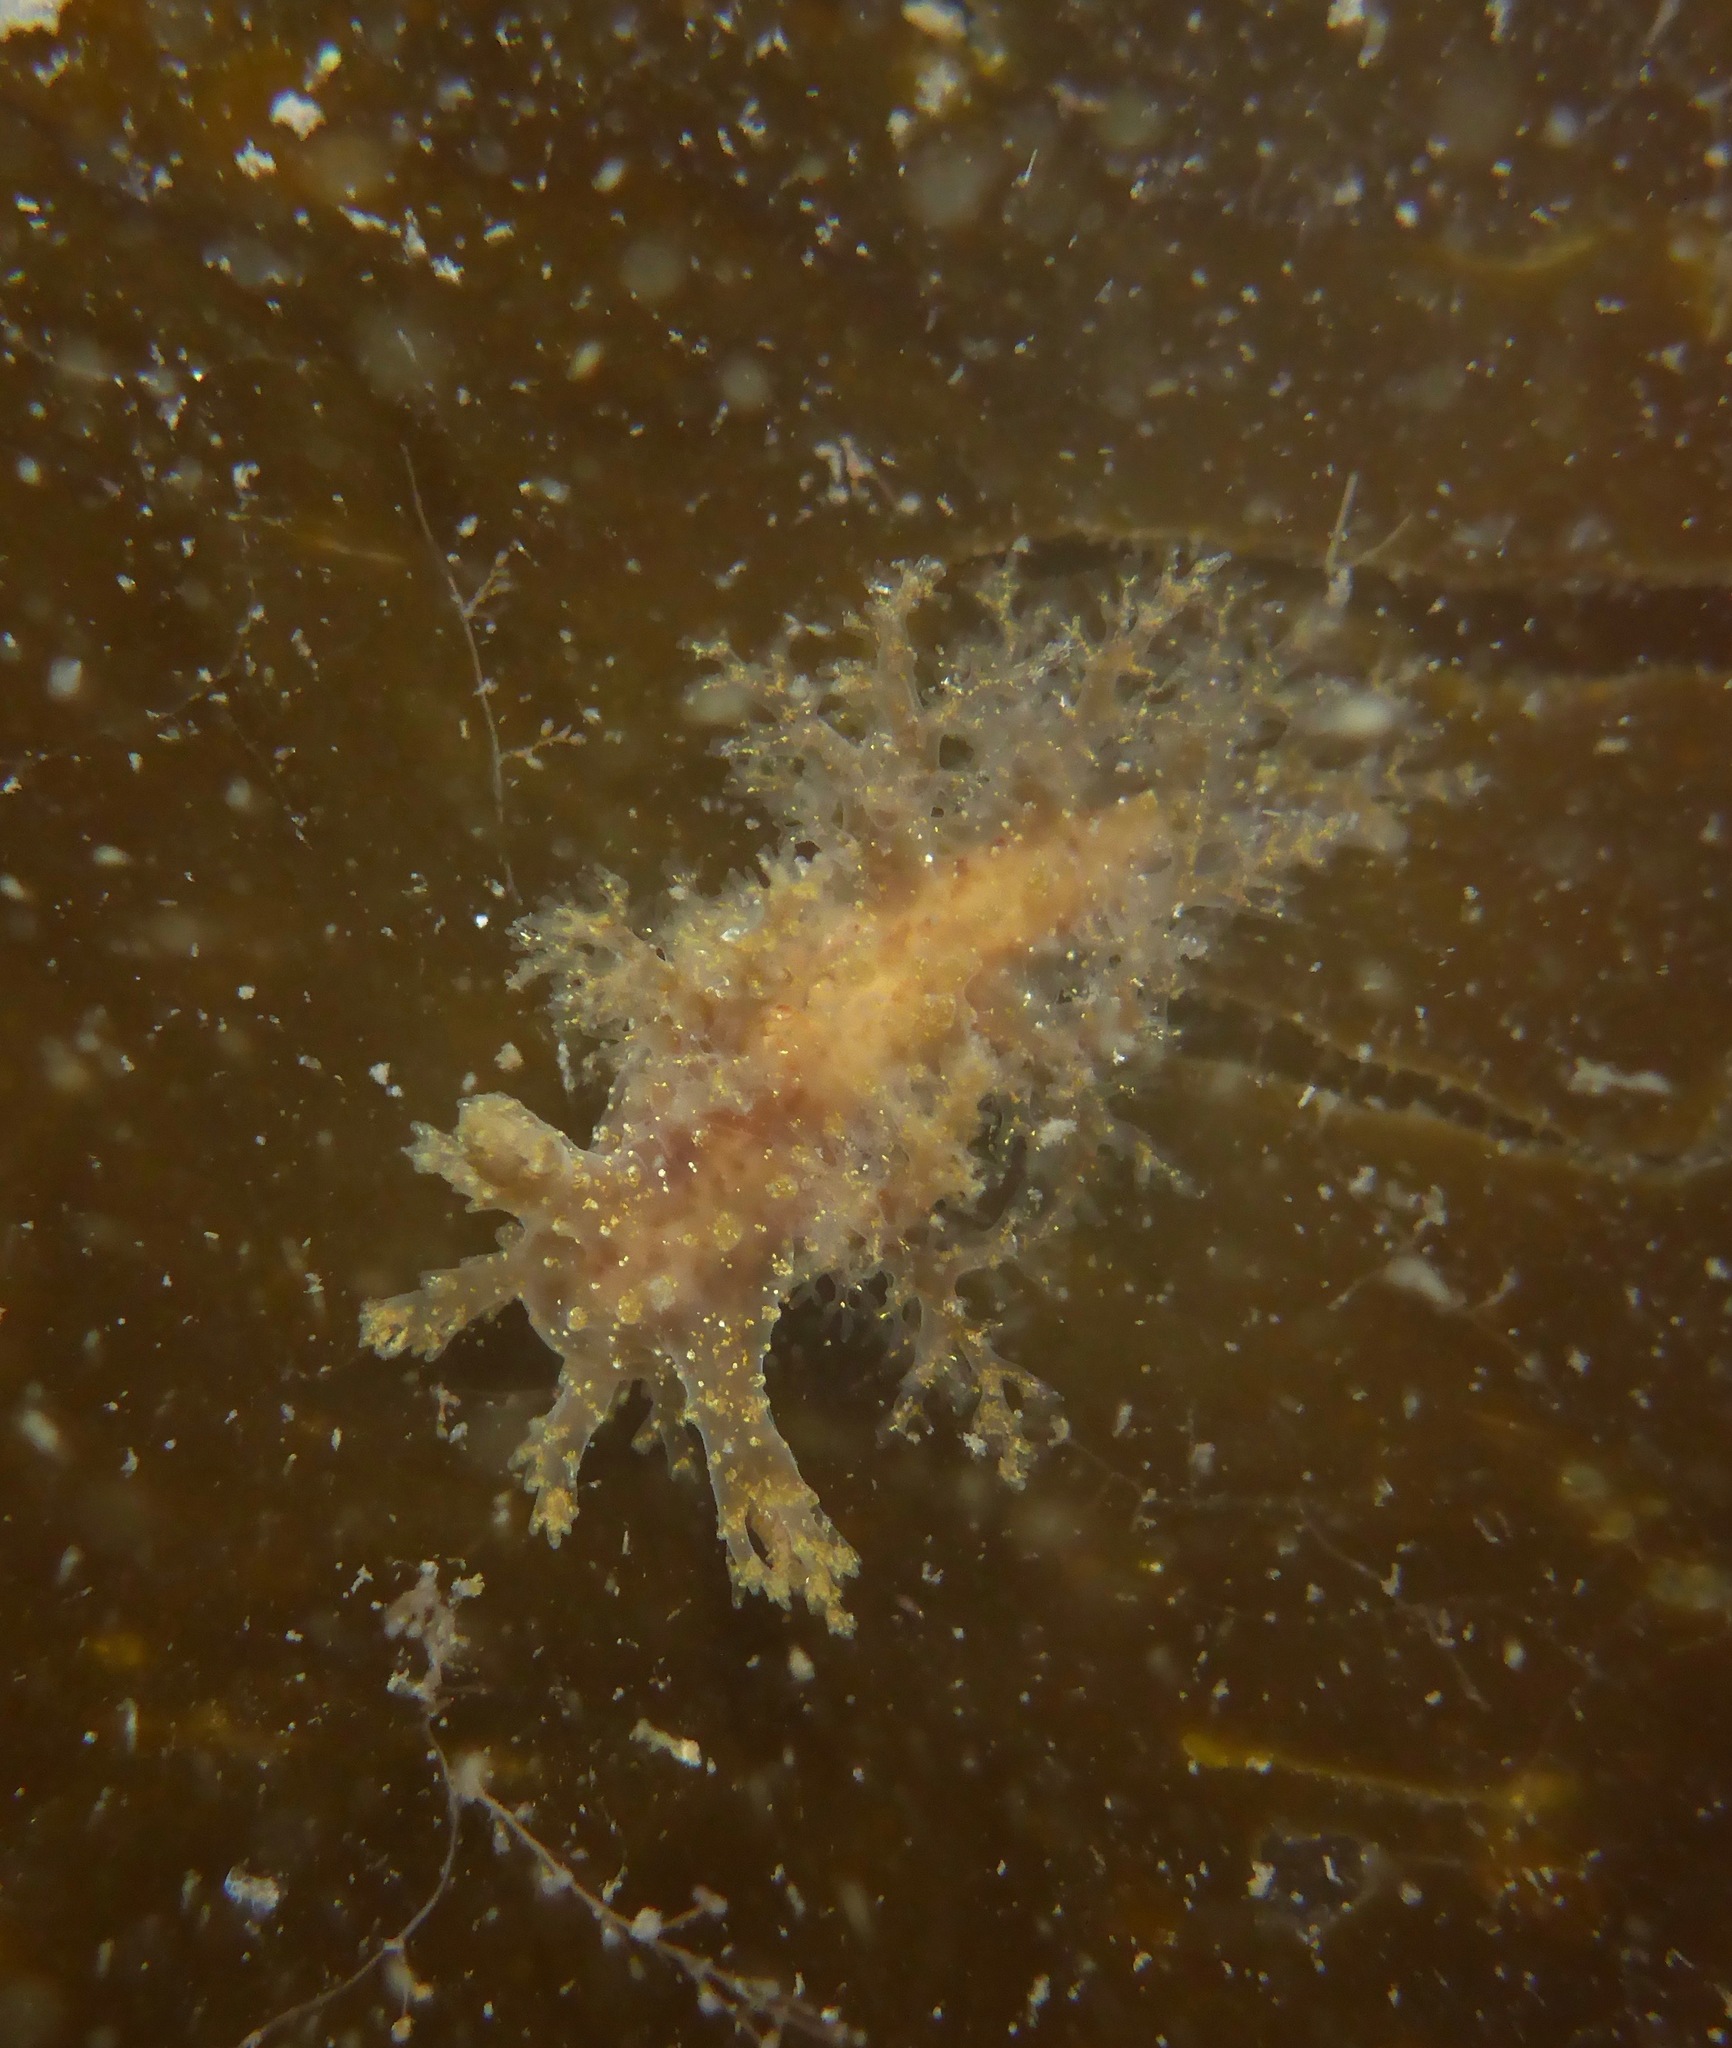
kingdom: Animalia
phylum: Mollusca
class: Gastropoda
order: Nudibranchia
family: Dendronotidae
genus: Dendronotus
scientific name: Dendronotus venustus
